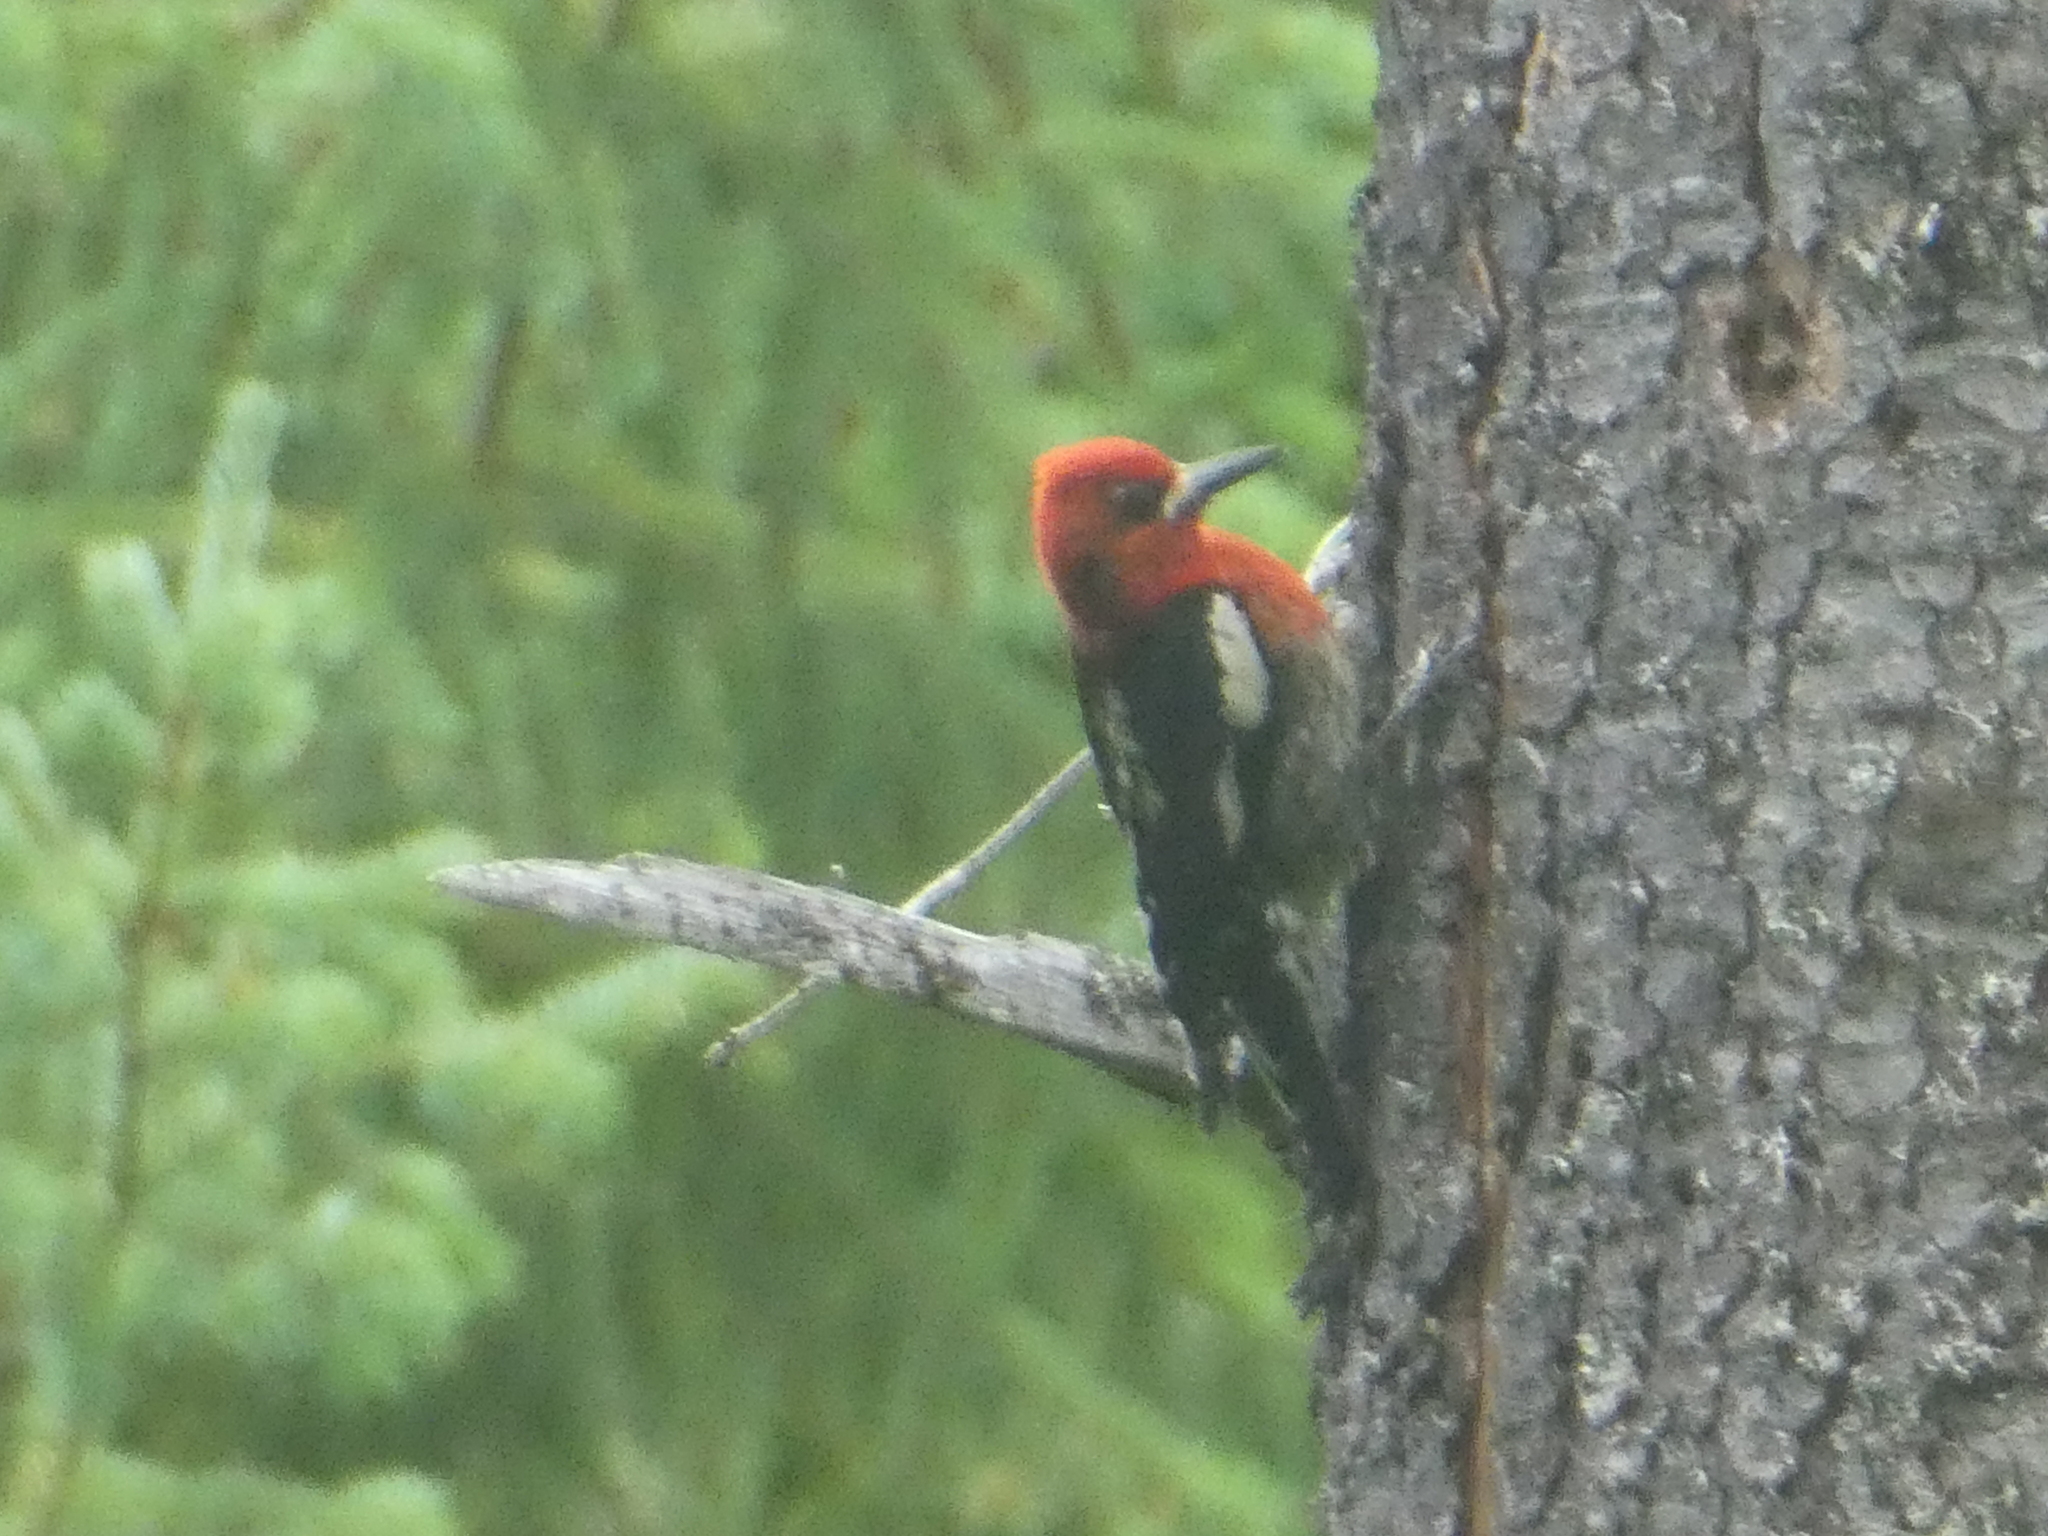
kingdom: Animalia
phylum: Chordata
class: Aves
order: Piciformes
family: Picidae
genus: Sphyrapicus
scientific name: Sphyrapicus ruber
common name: Red-breasted sapsucker
